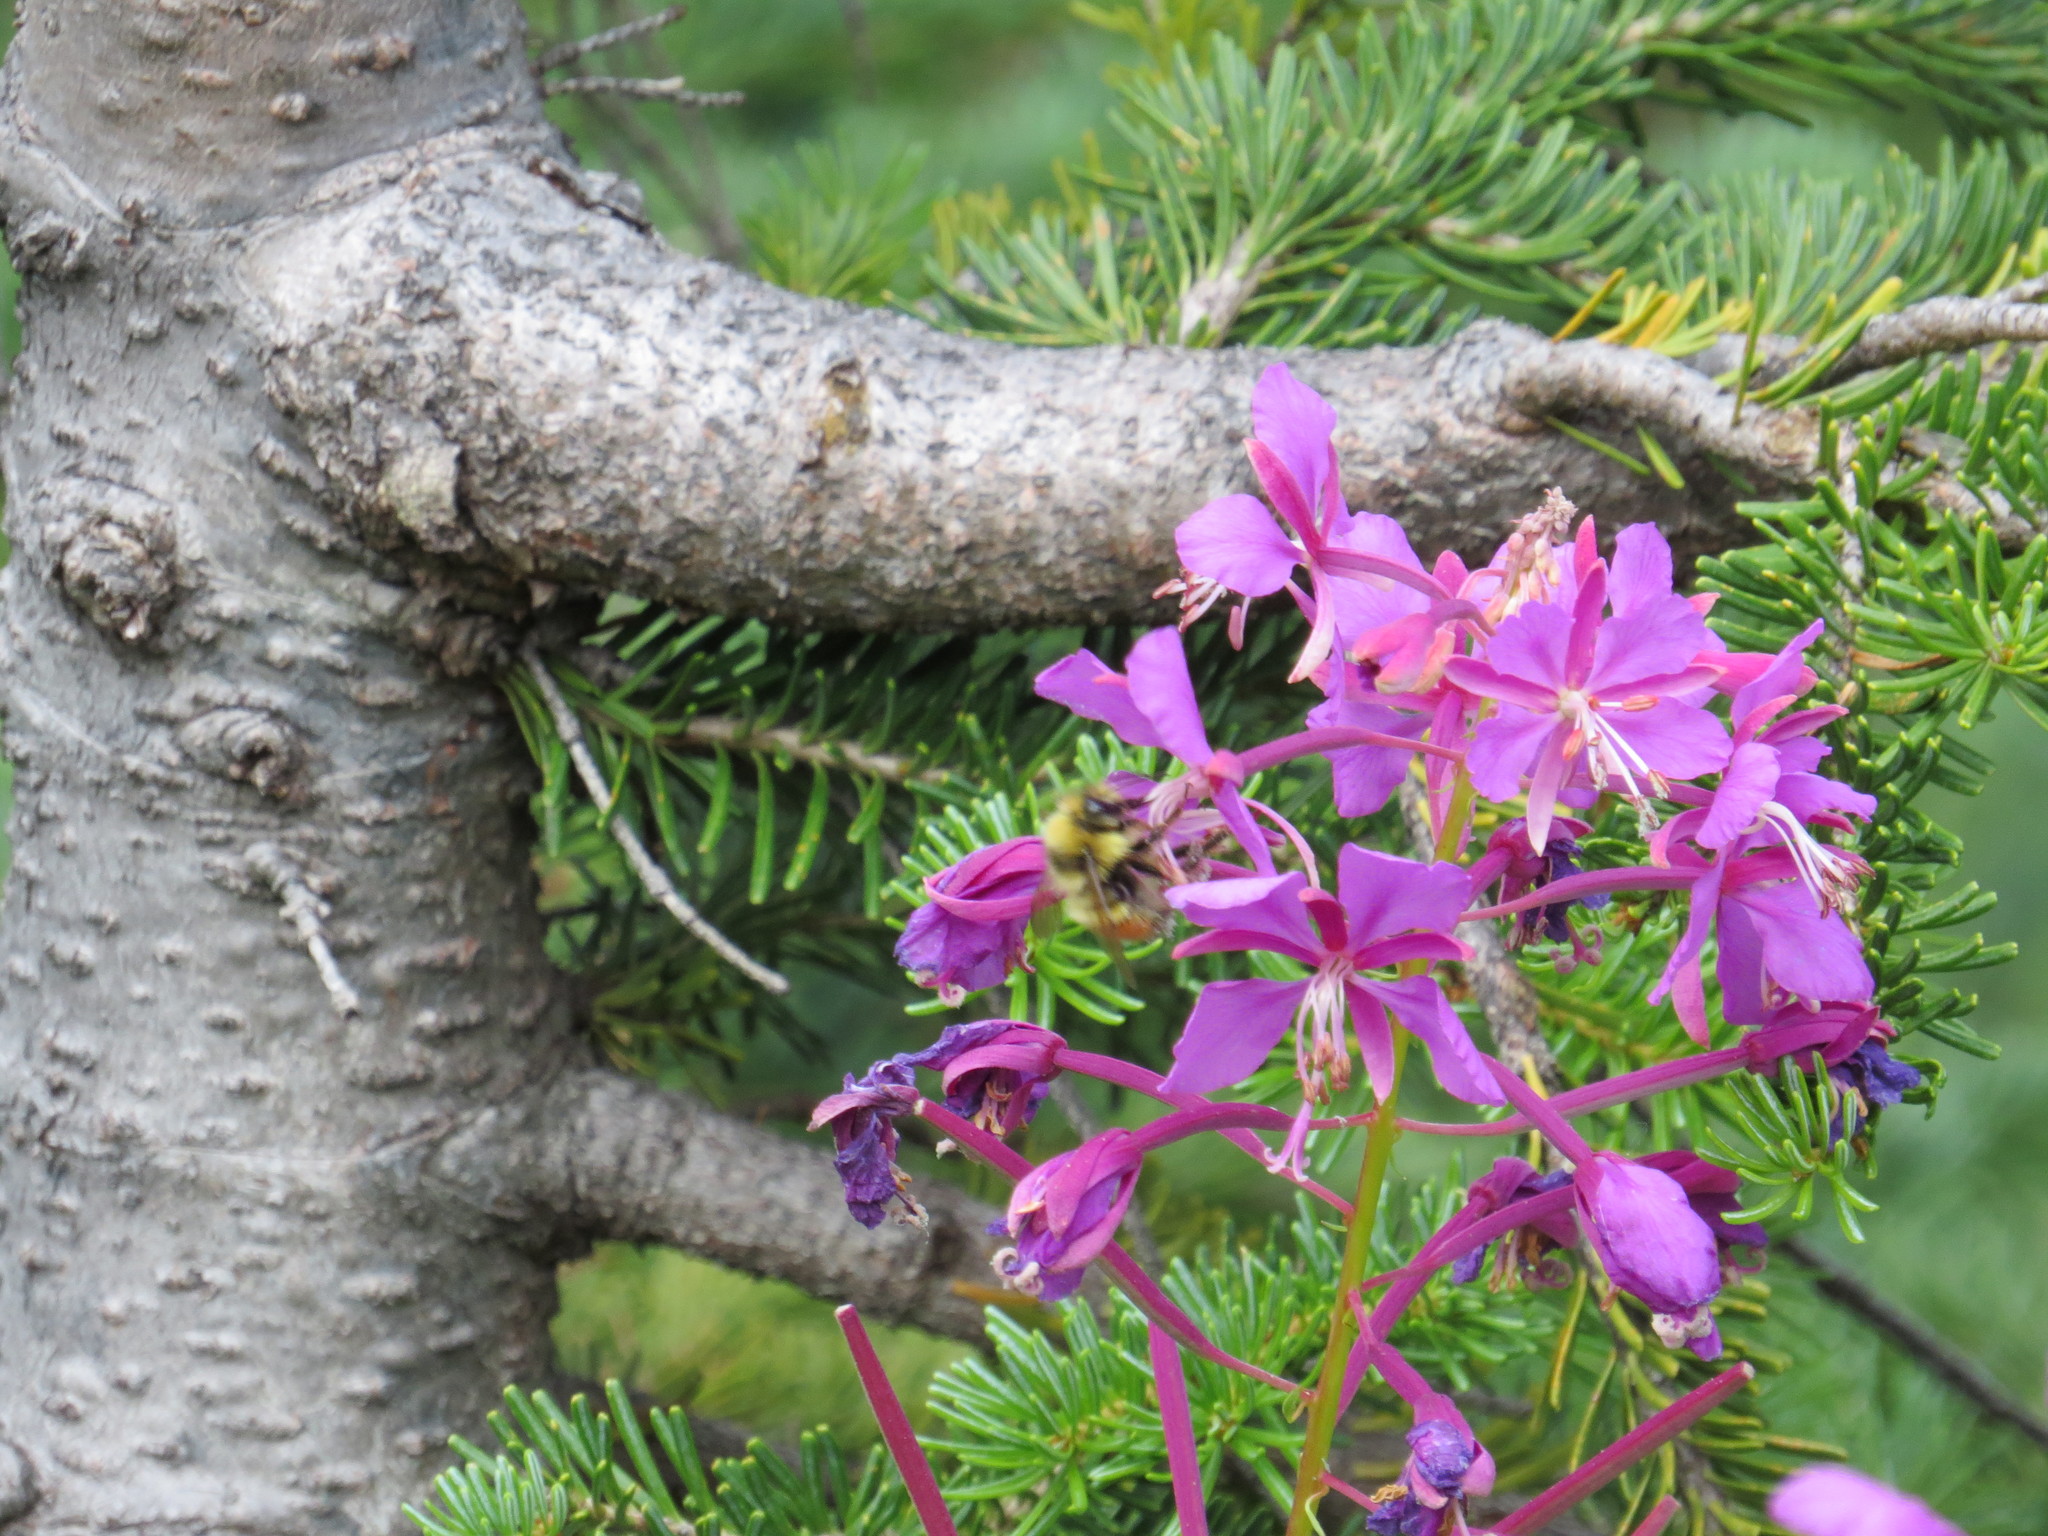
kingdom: Plantae
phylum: Tracheophyta
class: Magnoliopsida
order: Myrtales
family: Onagraceae
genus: Chamaenerion
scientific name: Chamaenerion angustifolium
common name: Fireweed
